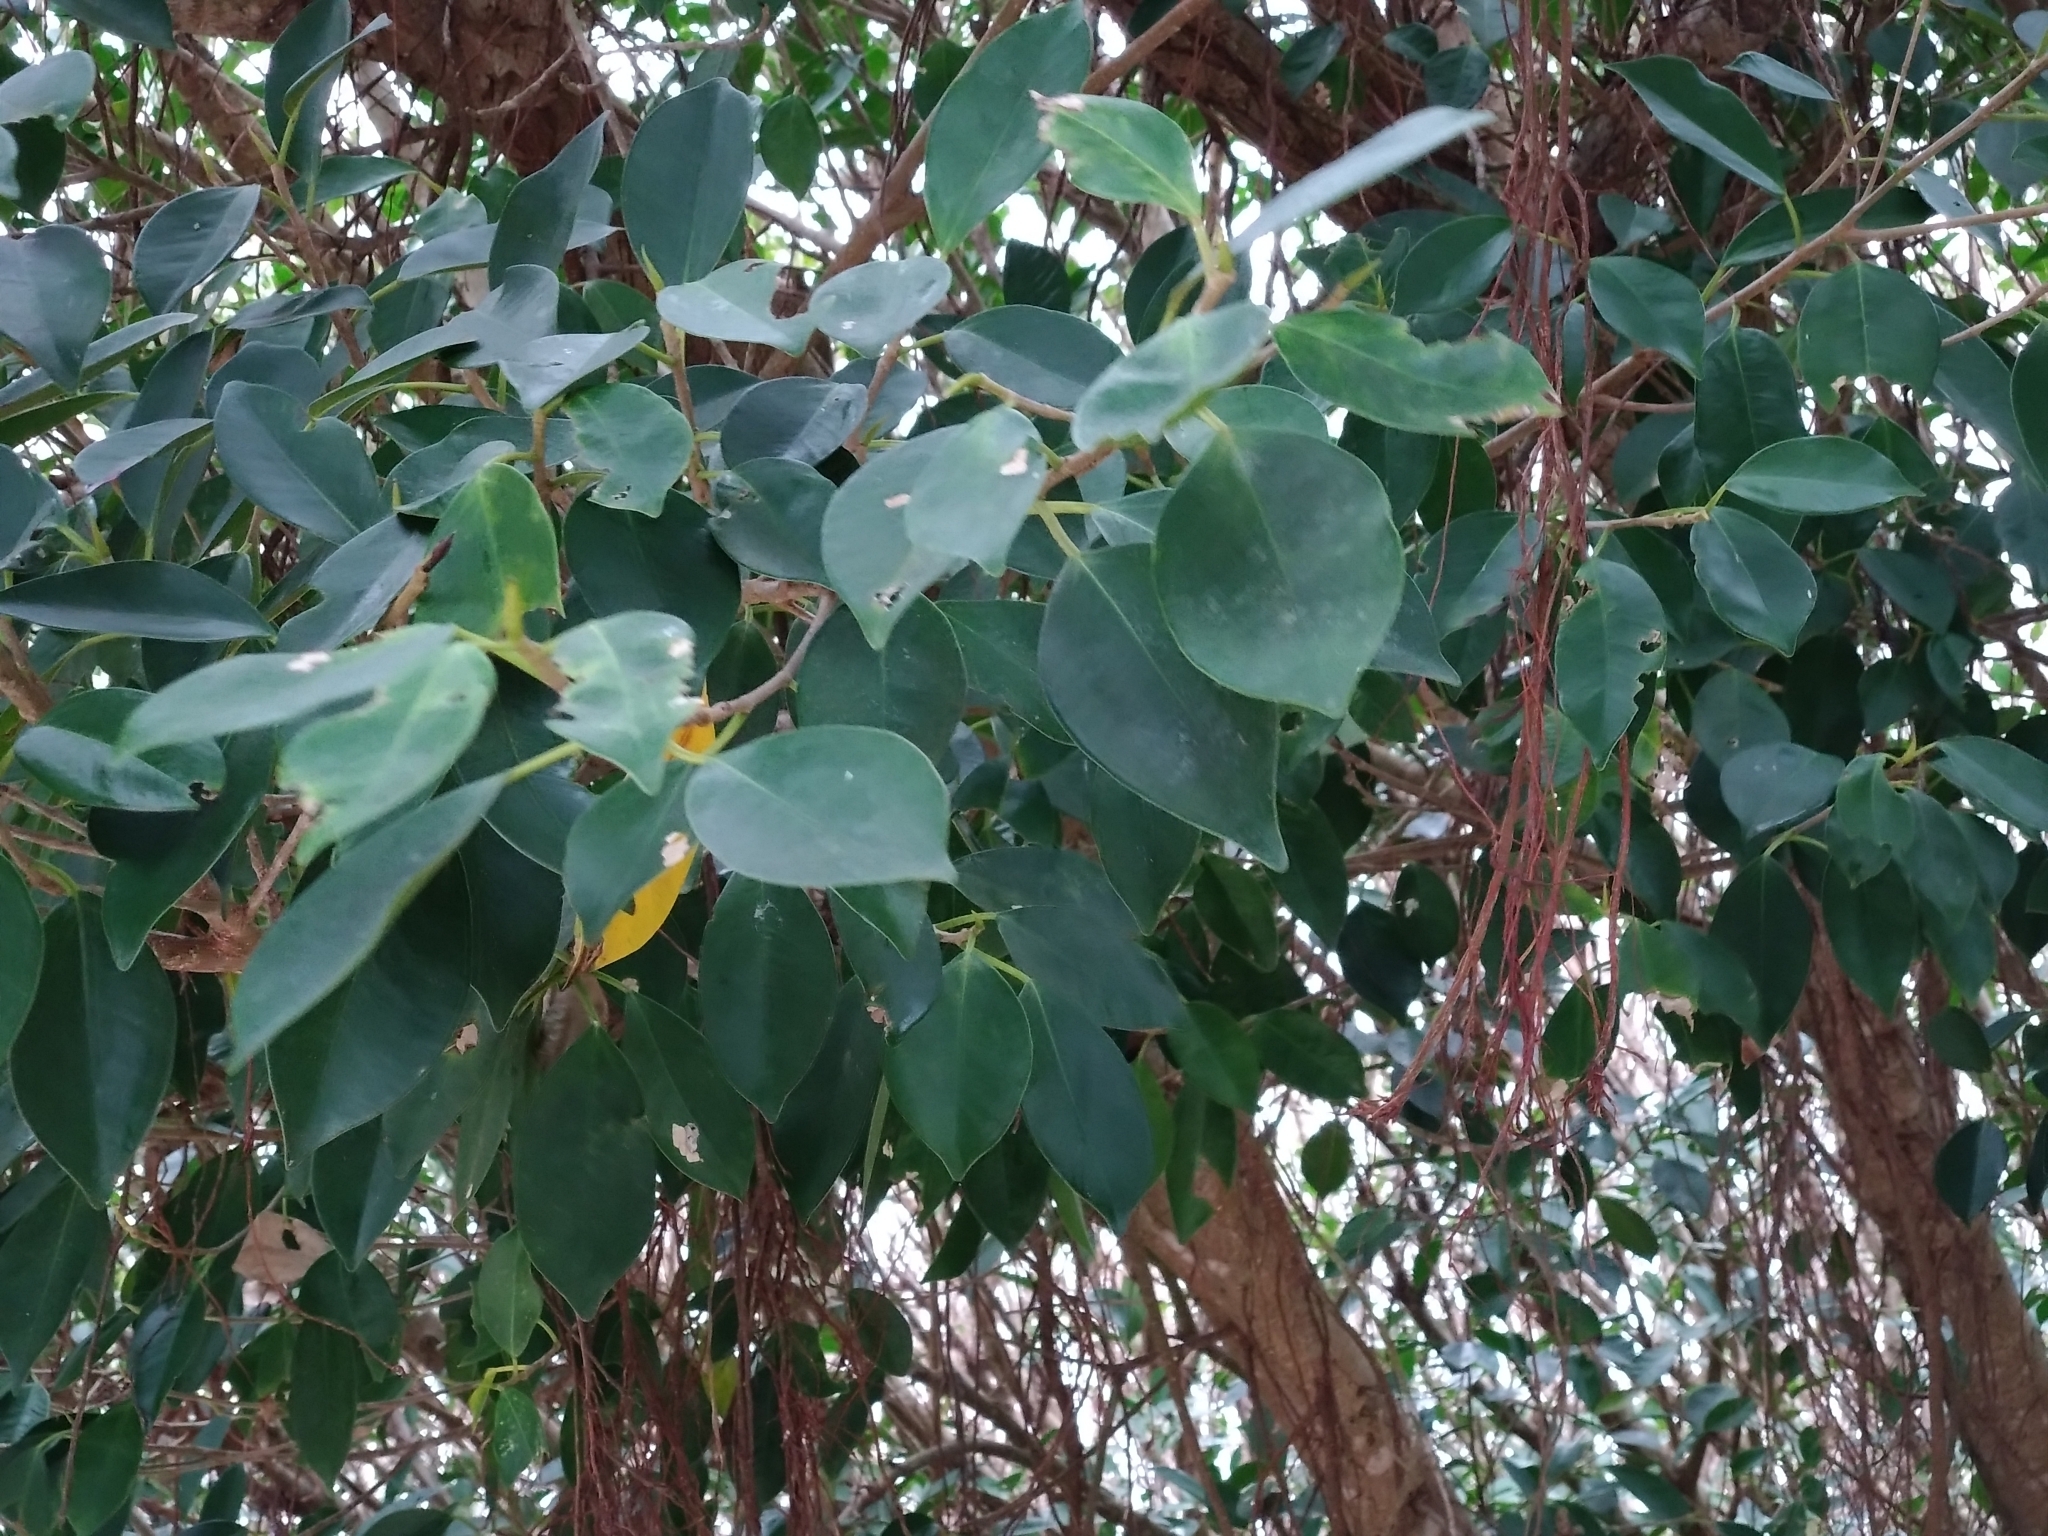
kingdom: Plantae
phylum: Tracheophyta
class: Magnoliopsida
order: Rosales
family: Moraceae
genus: Ficus
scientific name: Ficus microcarpa
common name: Chinese banyan
